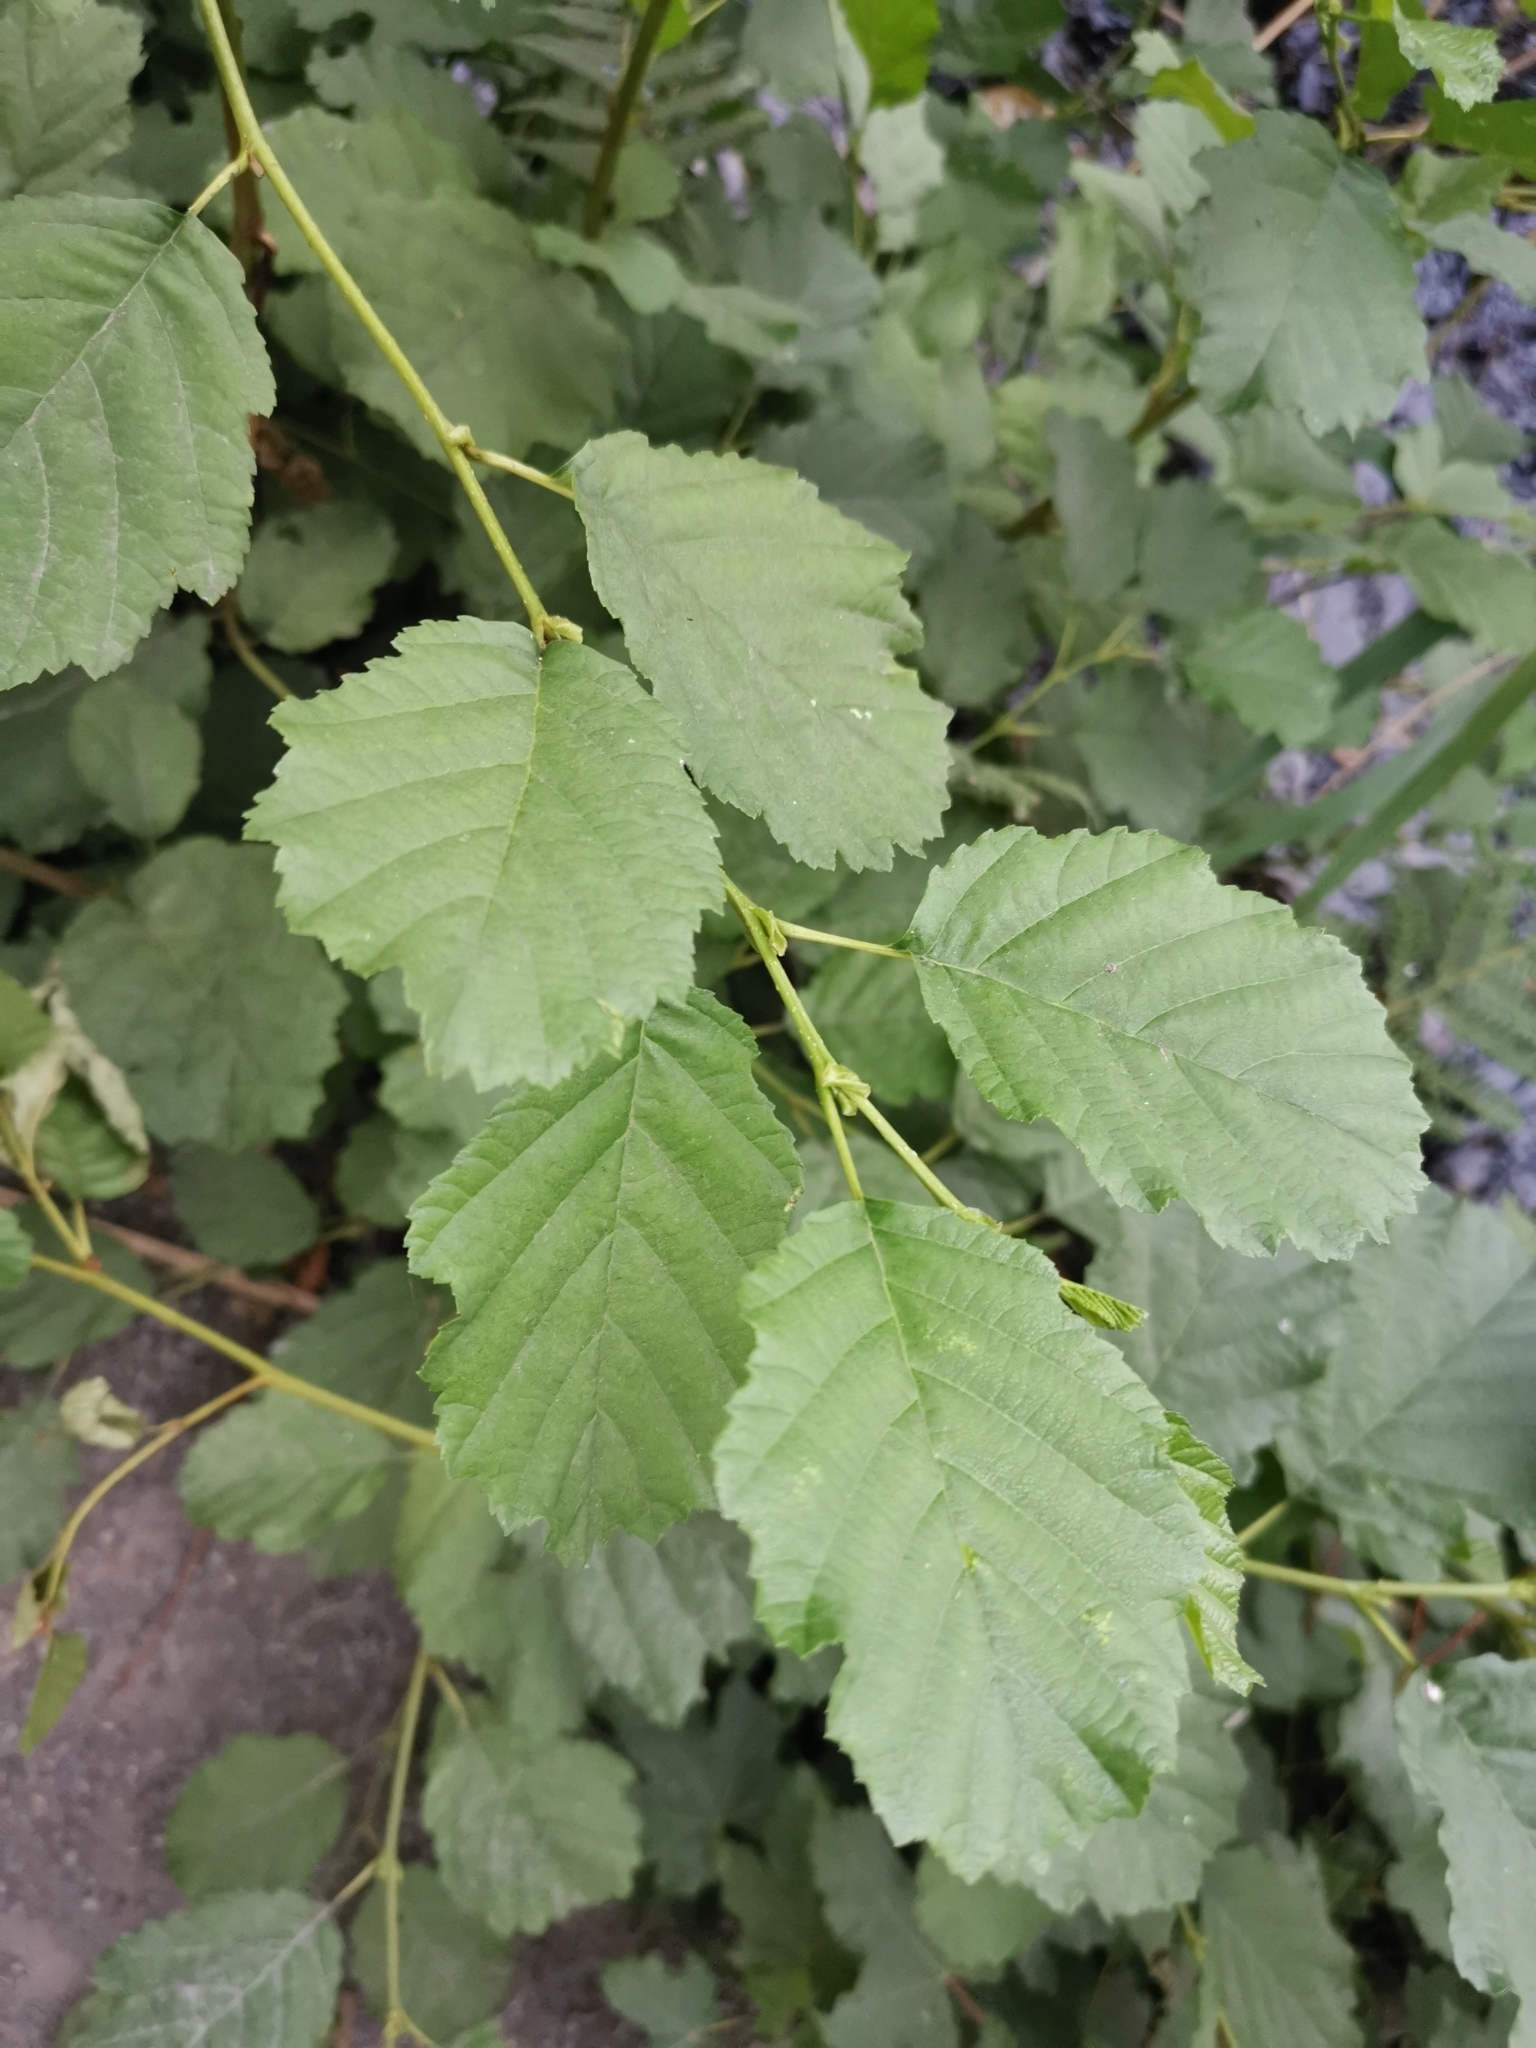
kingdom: Plantae
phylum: Tracheophyta
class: Magnoliopsida
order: Fagales
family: Betulaceae
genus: Alnus
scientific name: Alnus glutinosa
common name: Black alder
